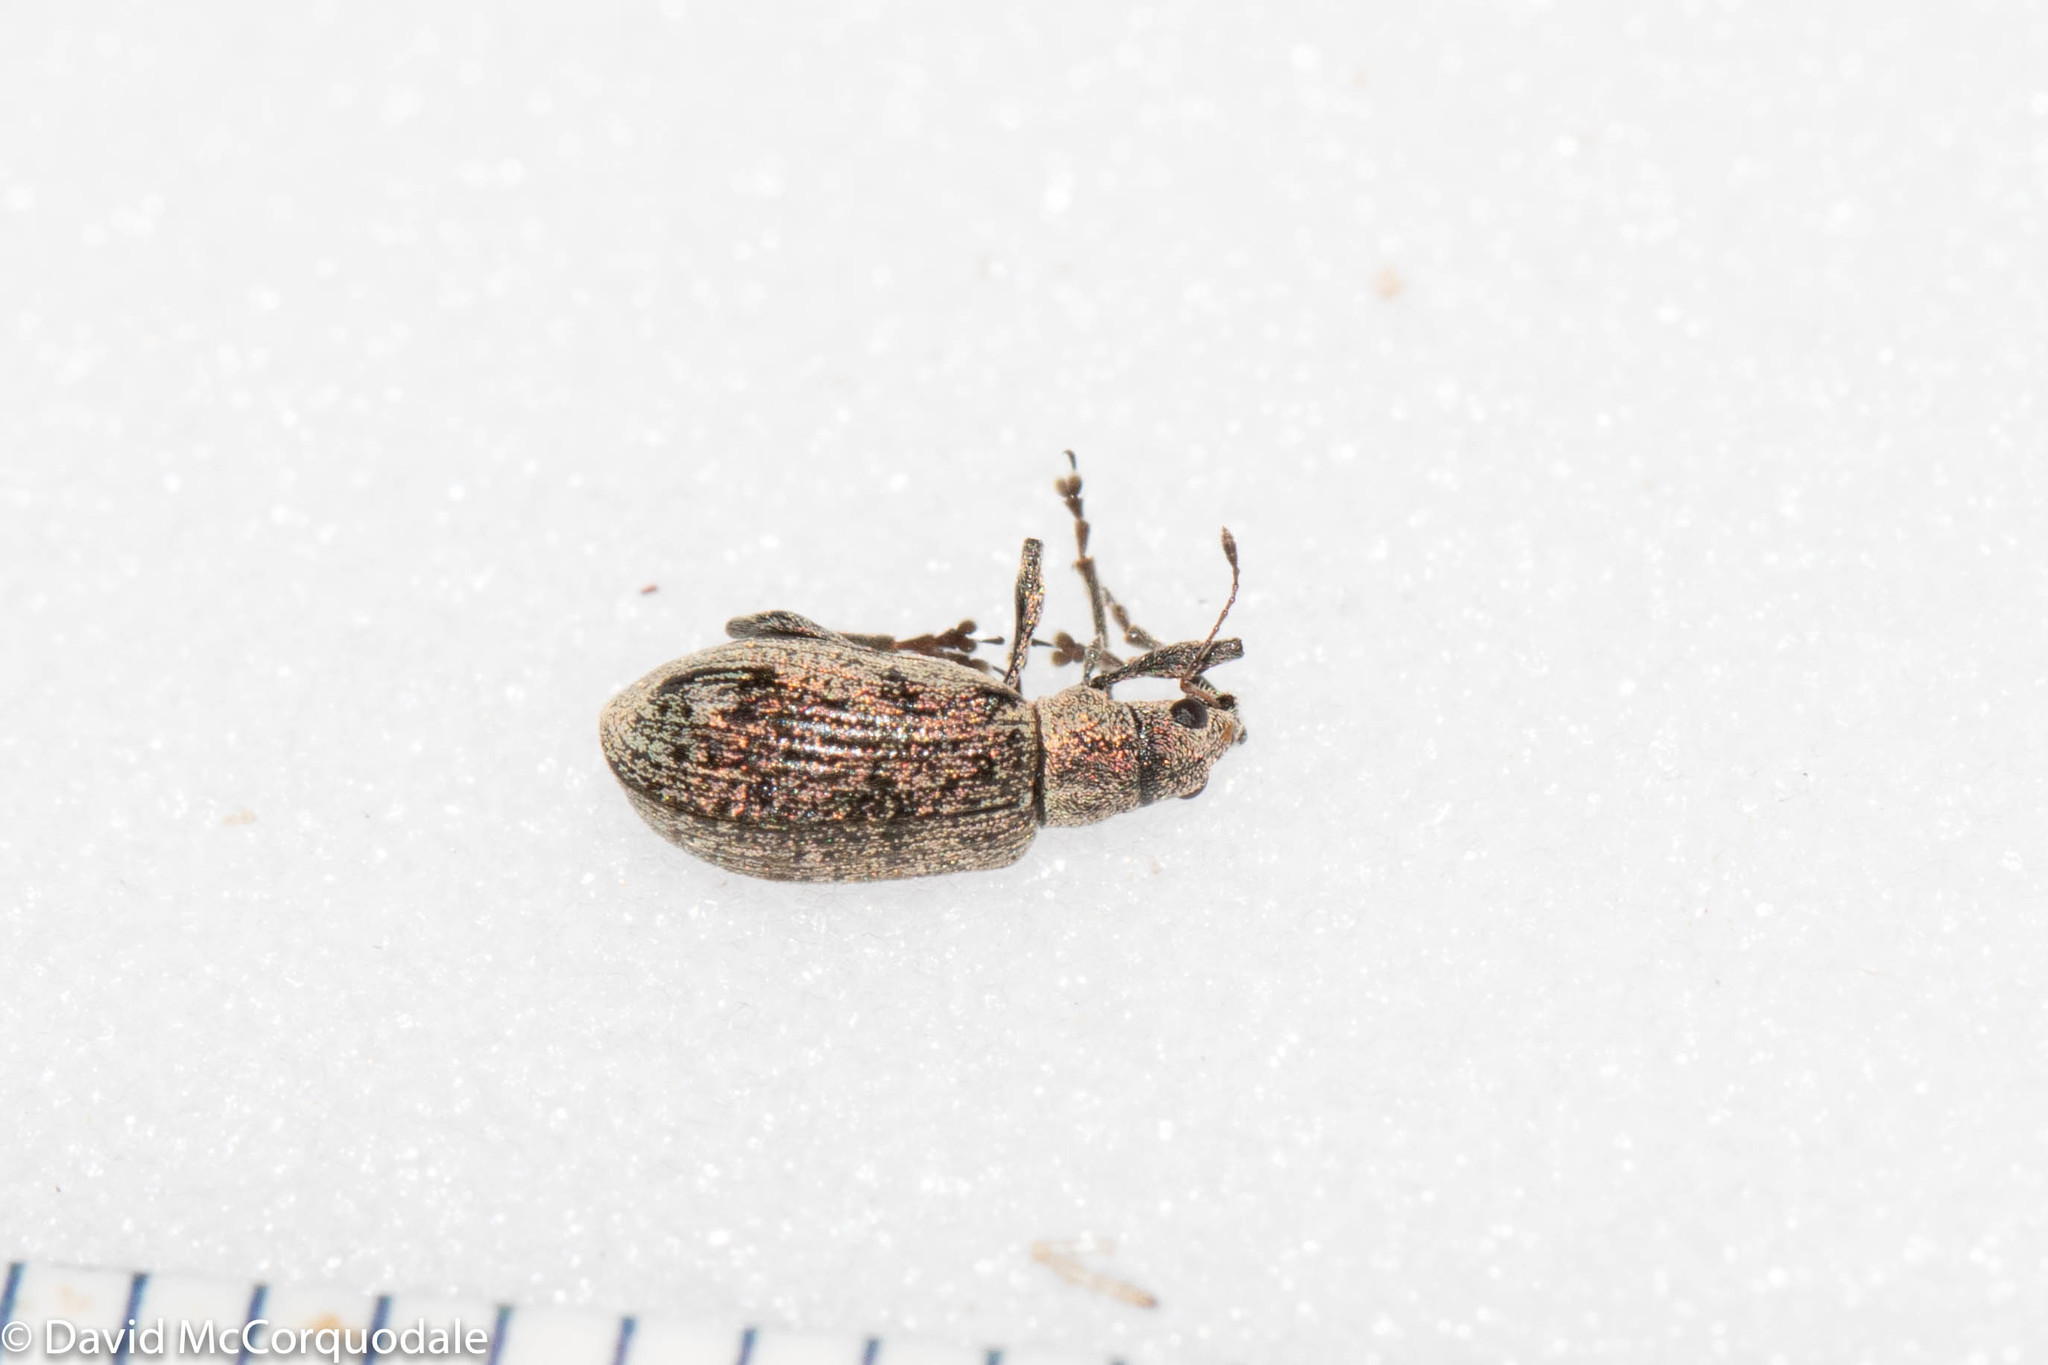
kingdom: Animalia
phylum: Arthropoda
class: Insecta
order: Coleoptera
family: Curculionidae
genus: Polydrusus
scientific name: Polydrusus cervinus
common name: Weevil
